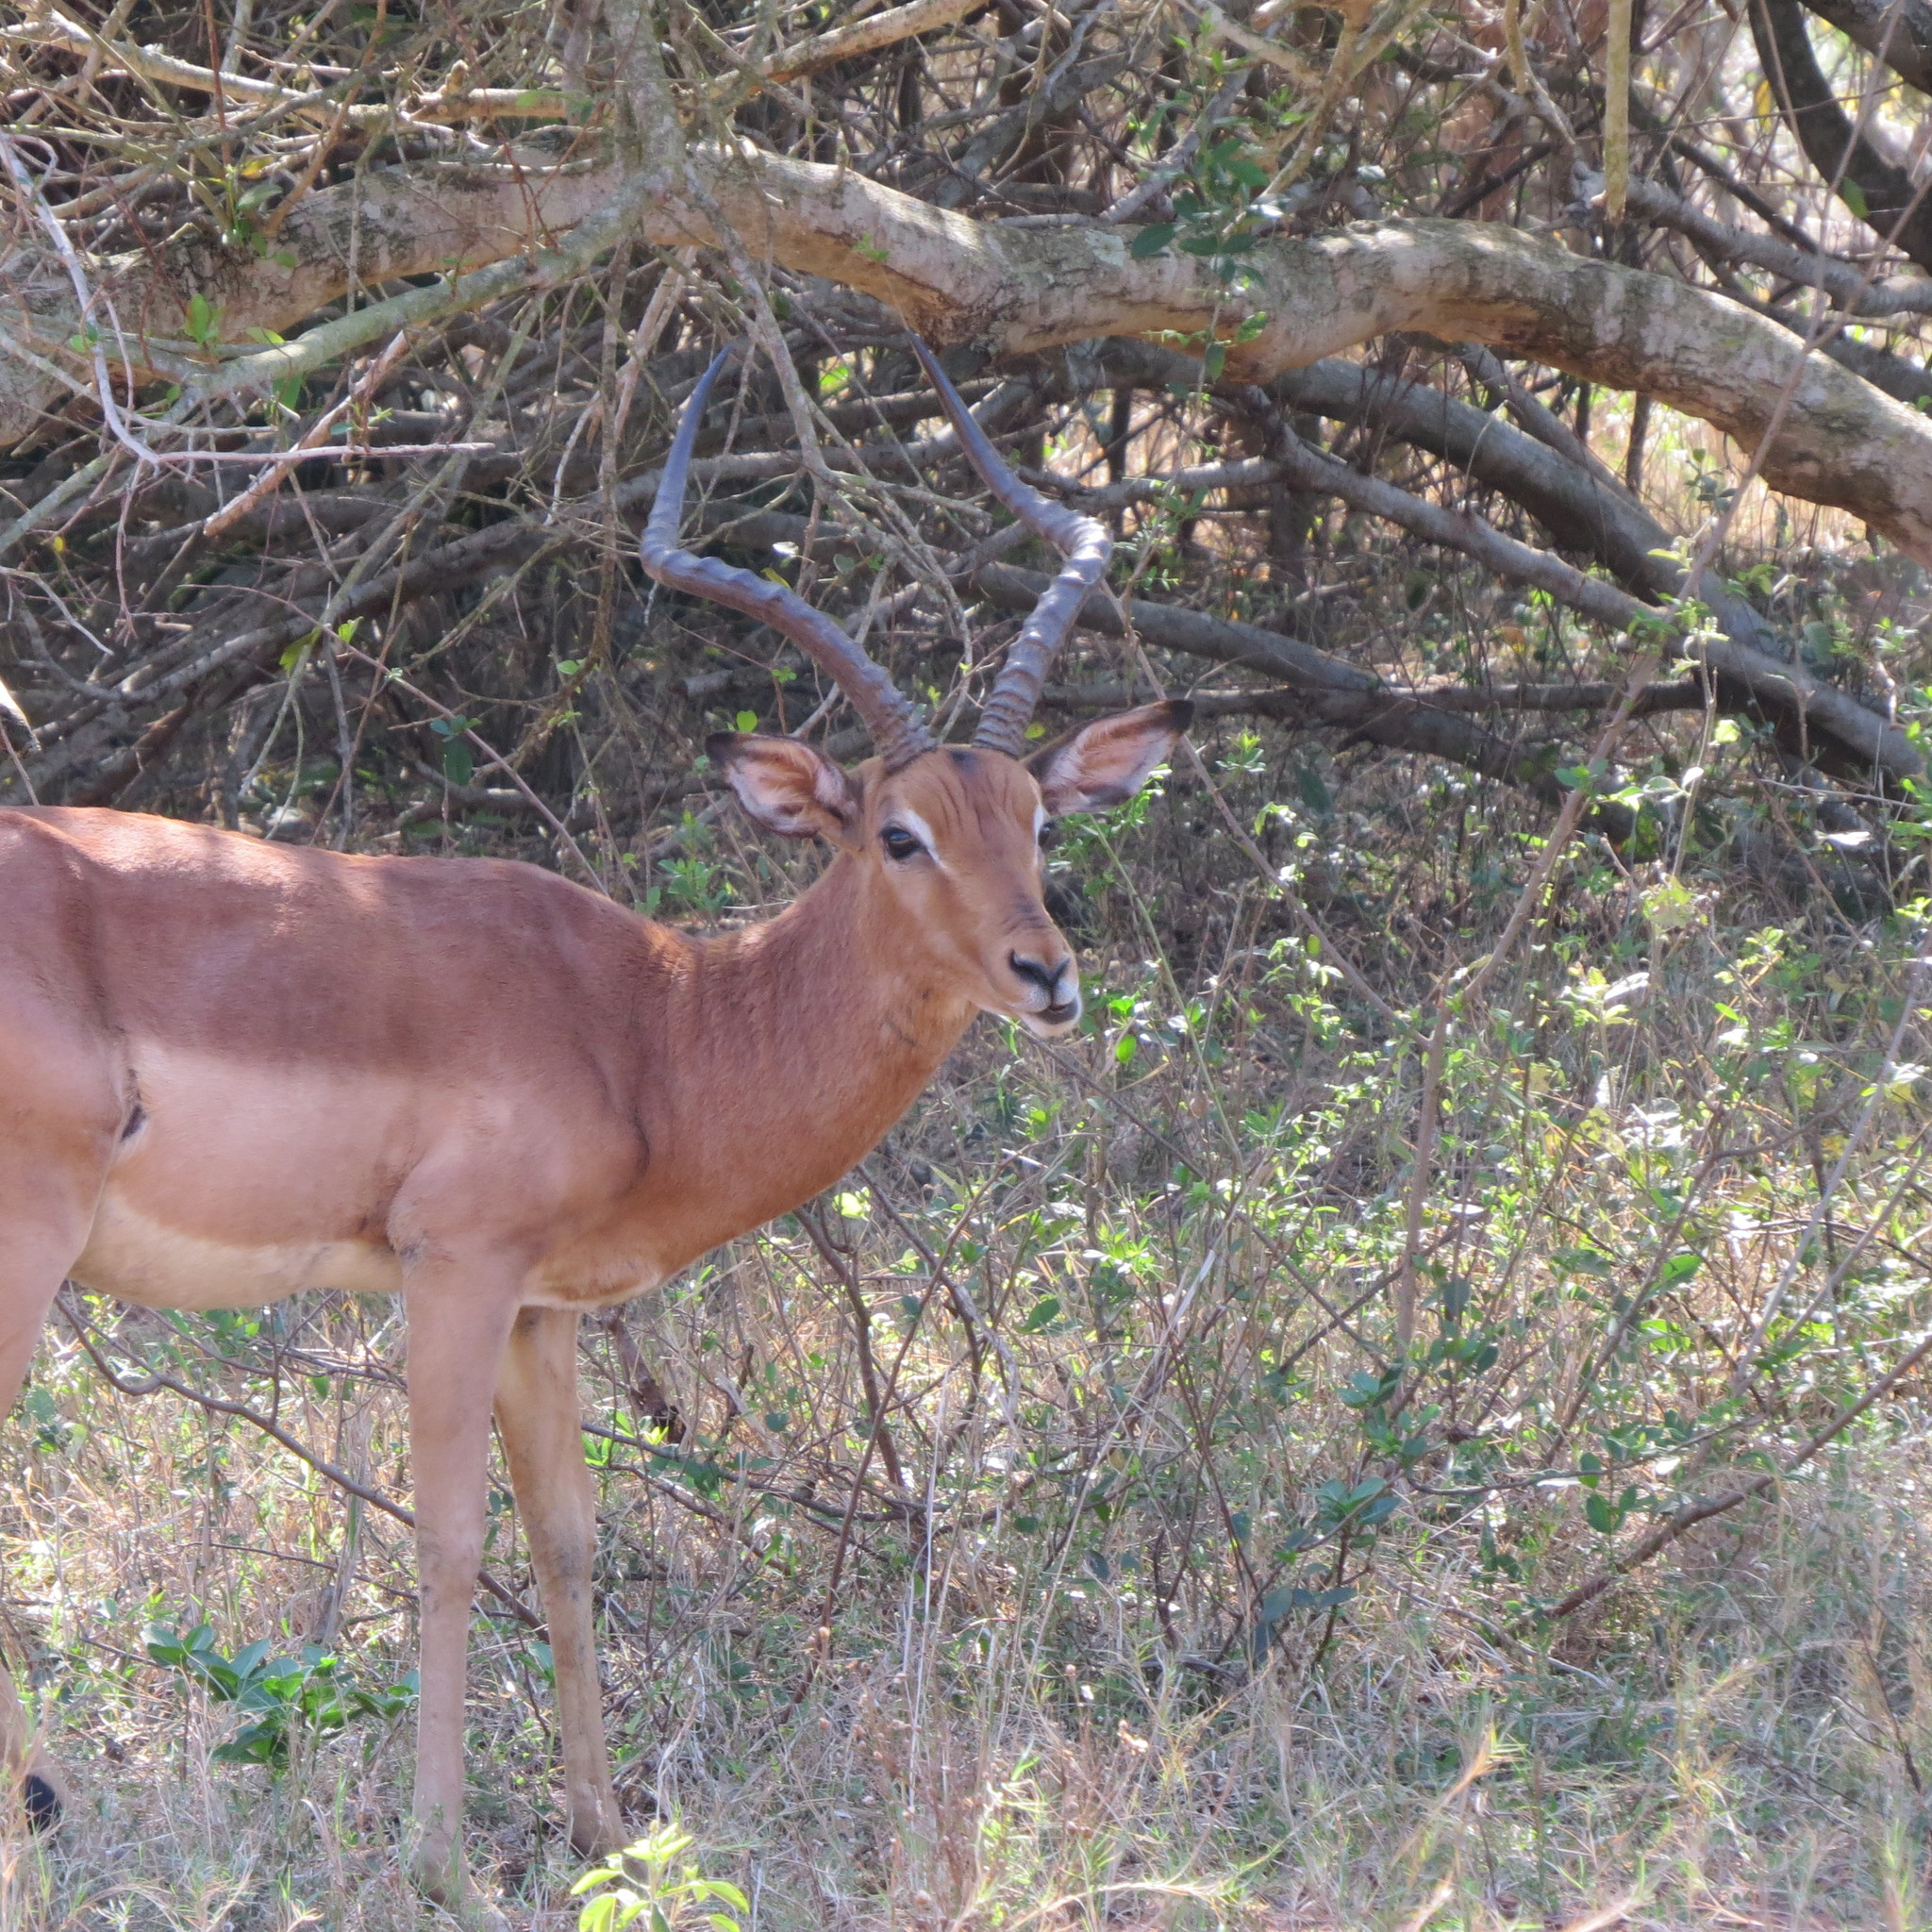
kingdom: Animalia
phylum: Chordata
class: Mammalia
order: Artiodactyla
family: Bovidae
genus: Aepyceros
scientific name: Aepyceros melampus
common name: Impala
